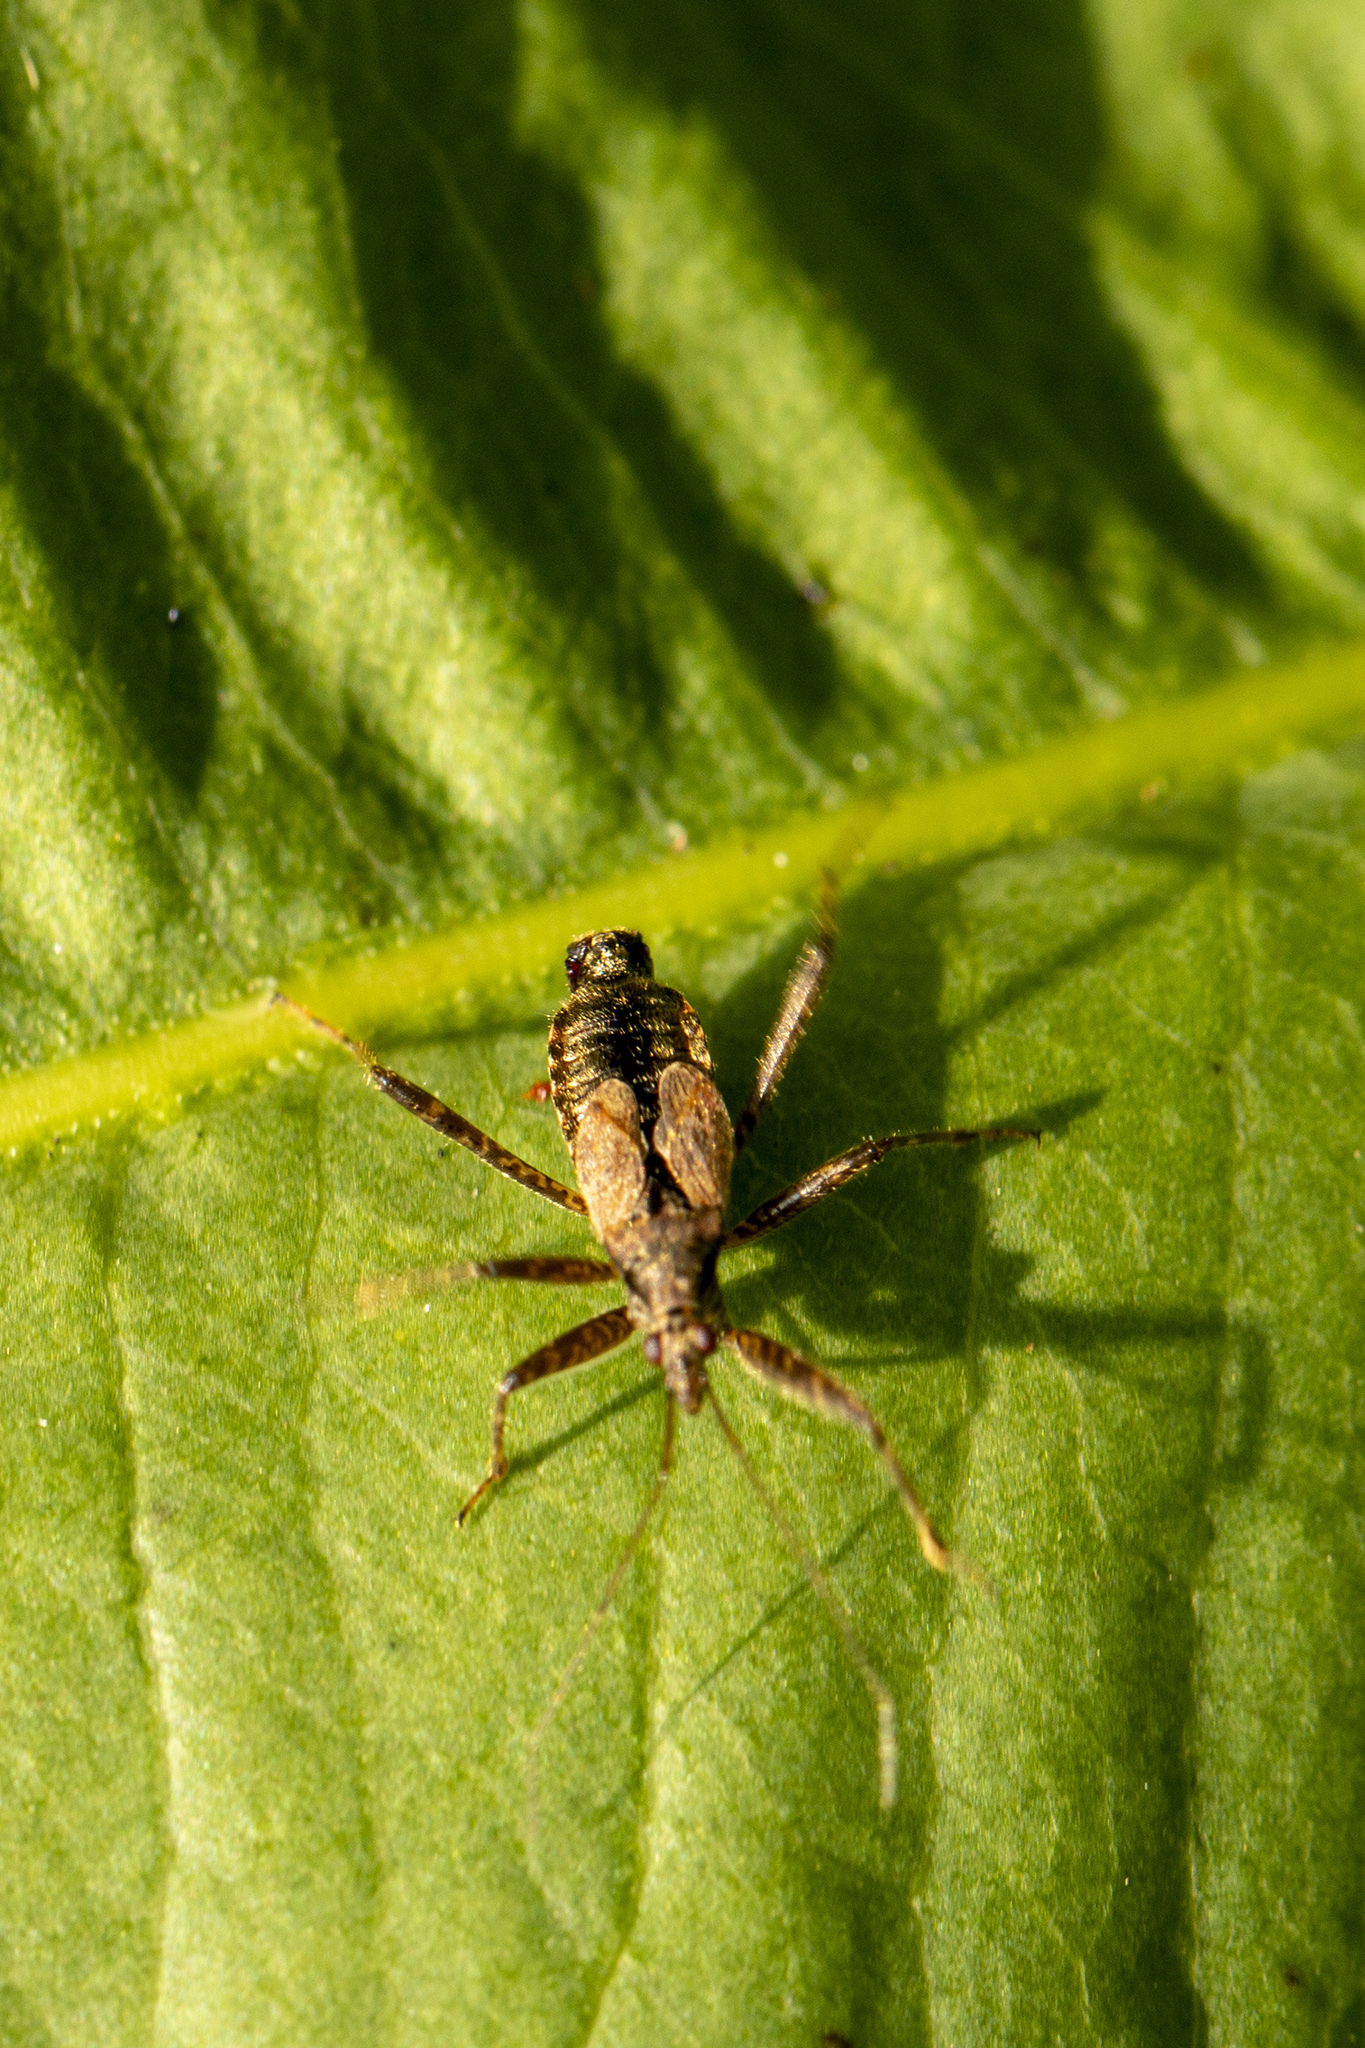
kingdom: Animalia
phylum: Arthropoda
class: Insecta
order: Hemiptera
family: Nabidae
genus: Himacerus
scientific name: Himacerus apterus
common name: Tree damsel bug
